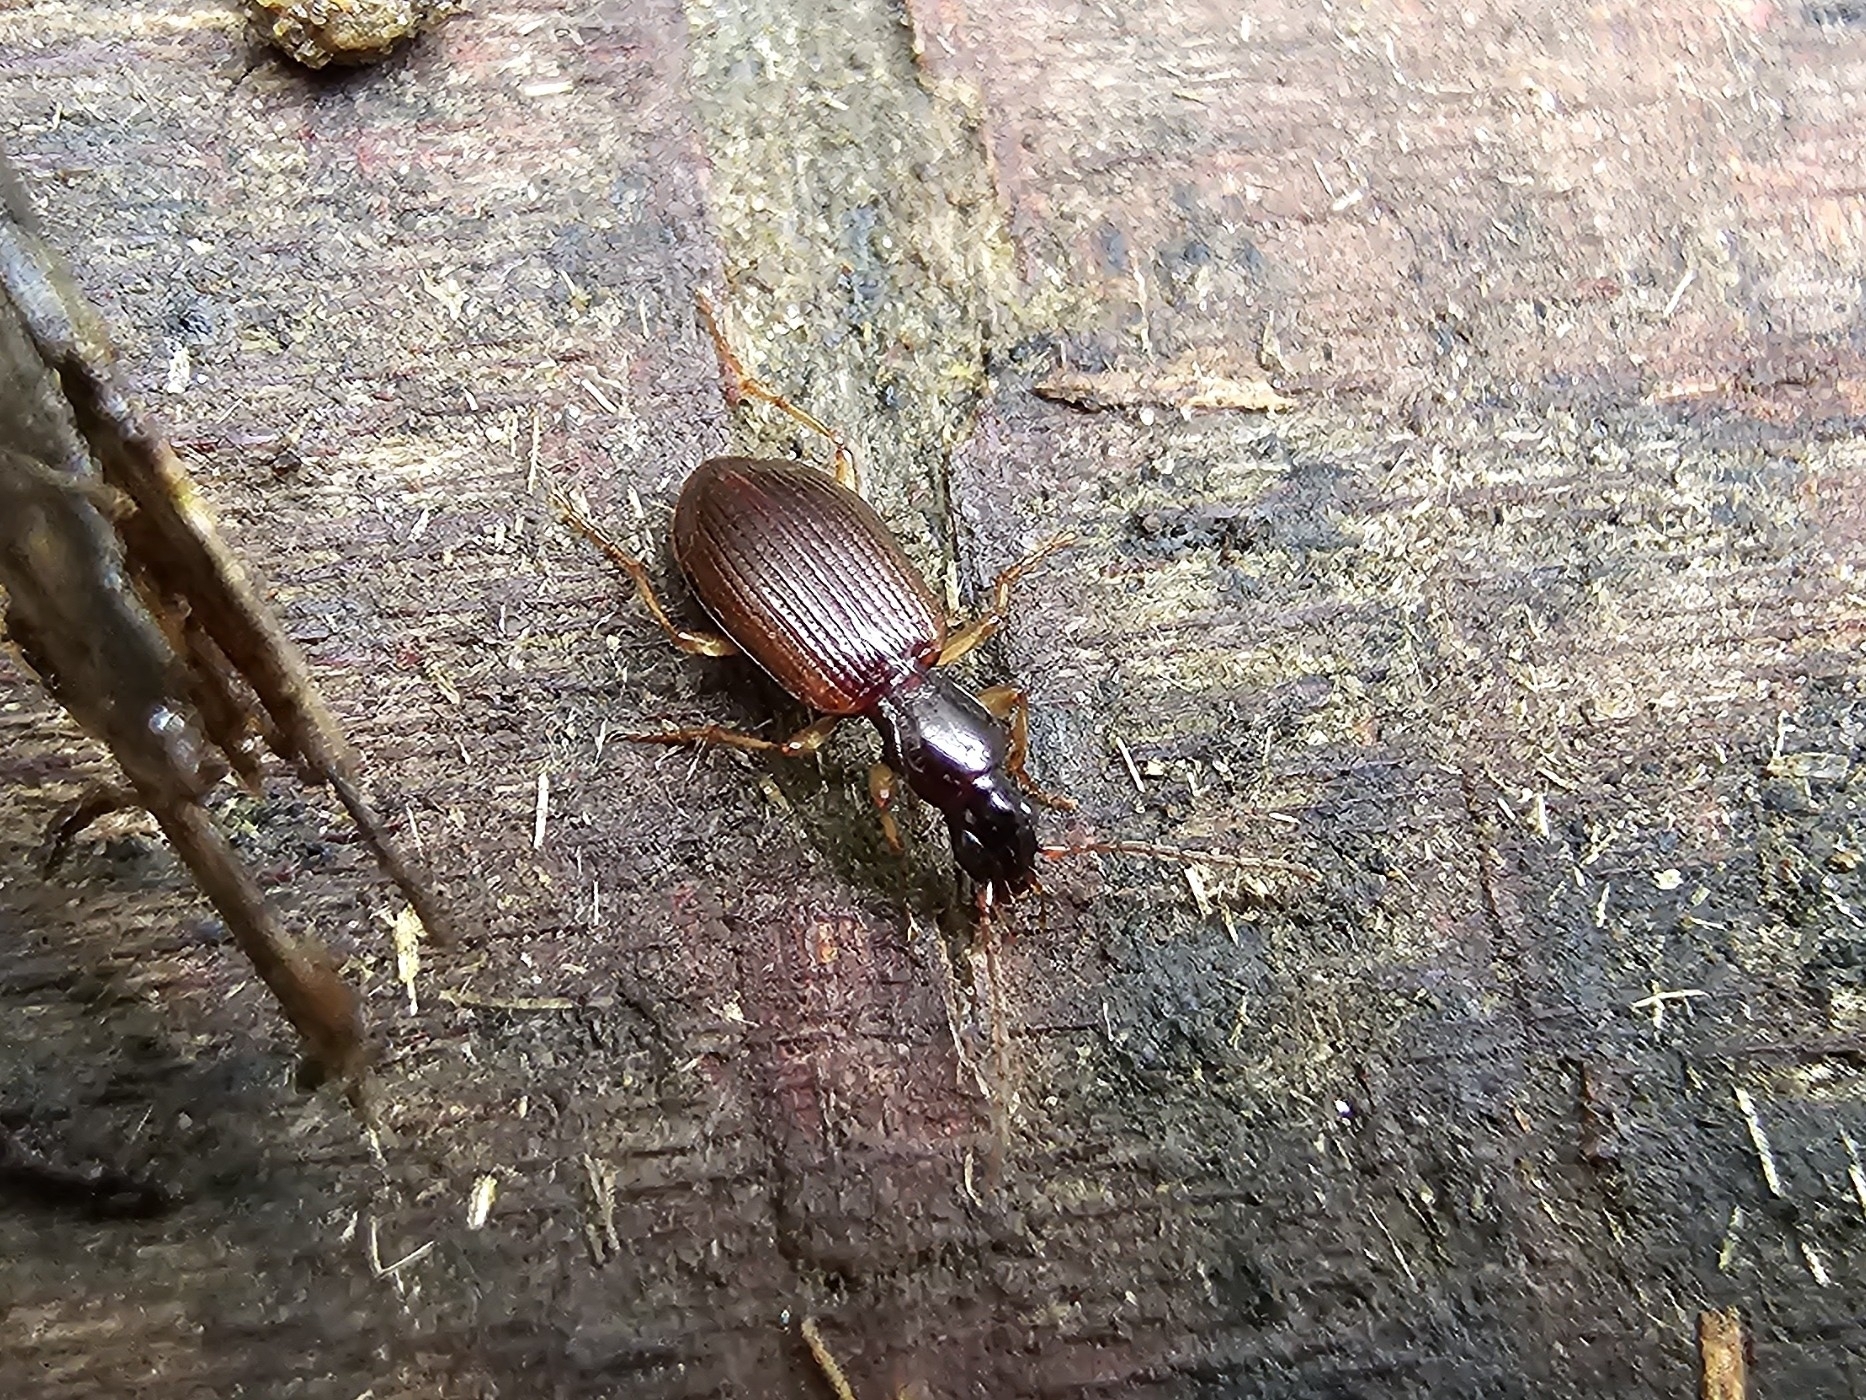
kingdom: Animalia
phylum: Arthropoda
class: Insecta
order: Coleoptera
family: Carabidae
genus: Oxypselaphus
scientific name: Oxypselaphus obscurus
